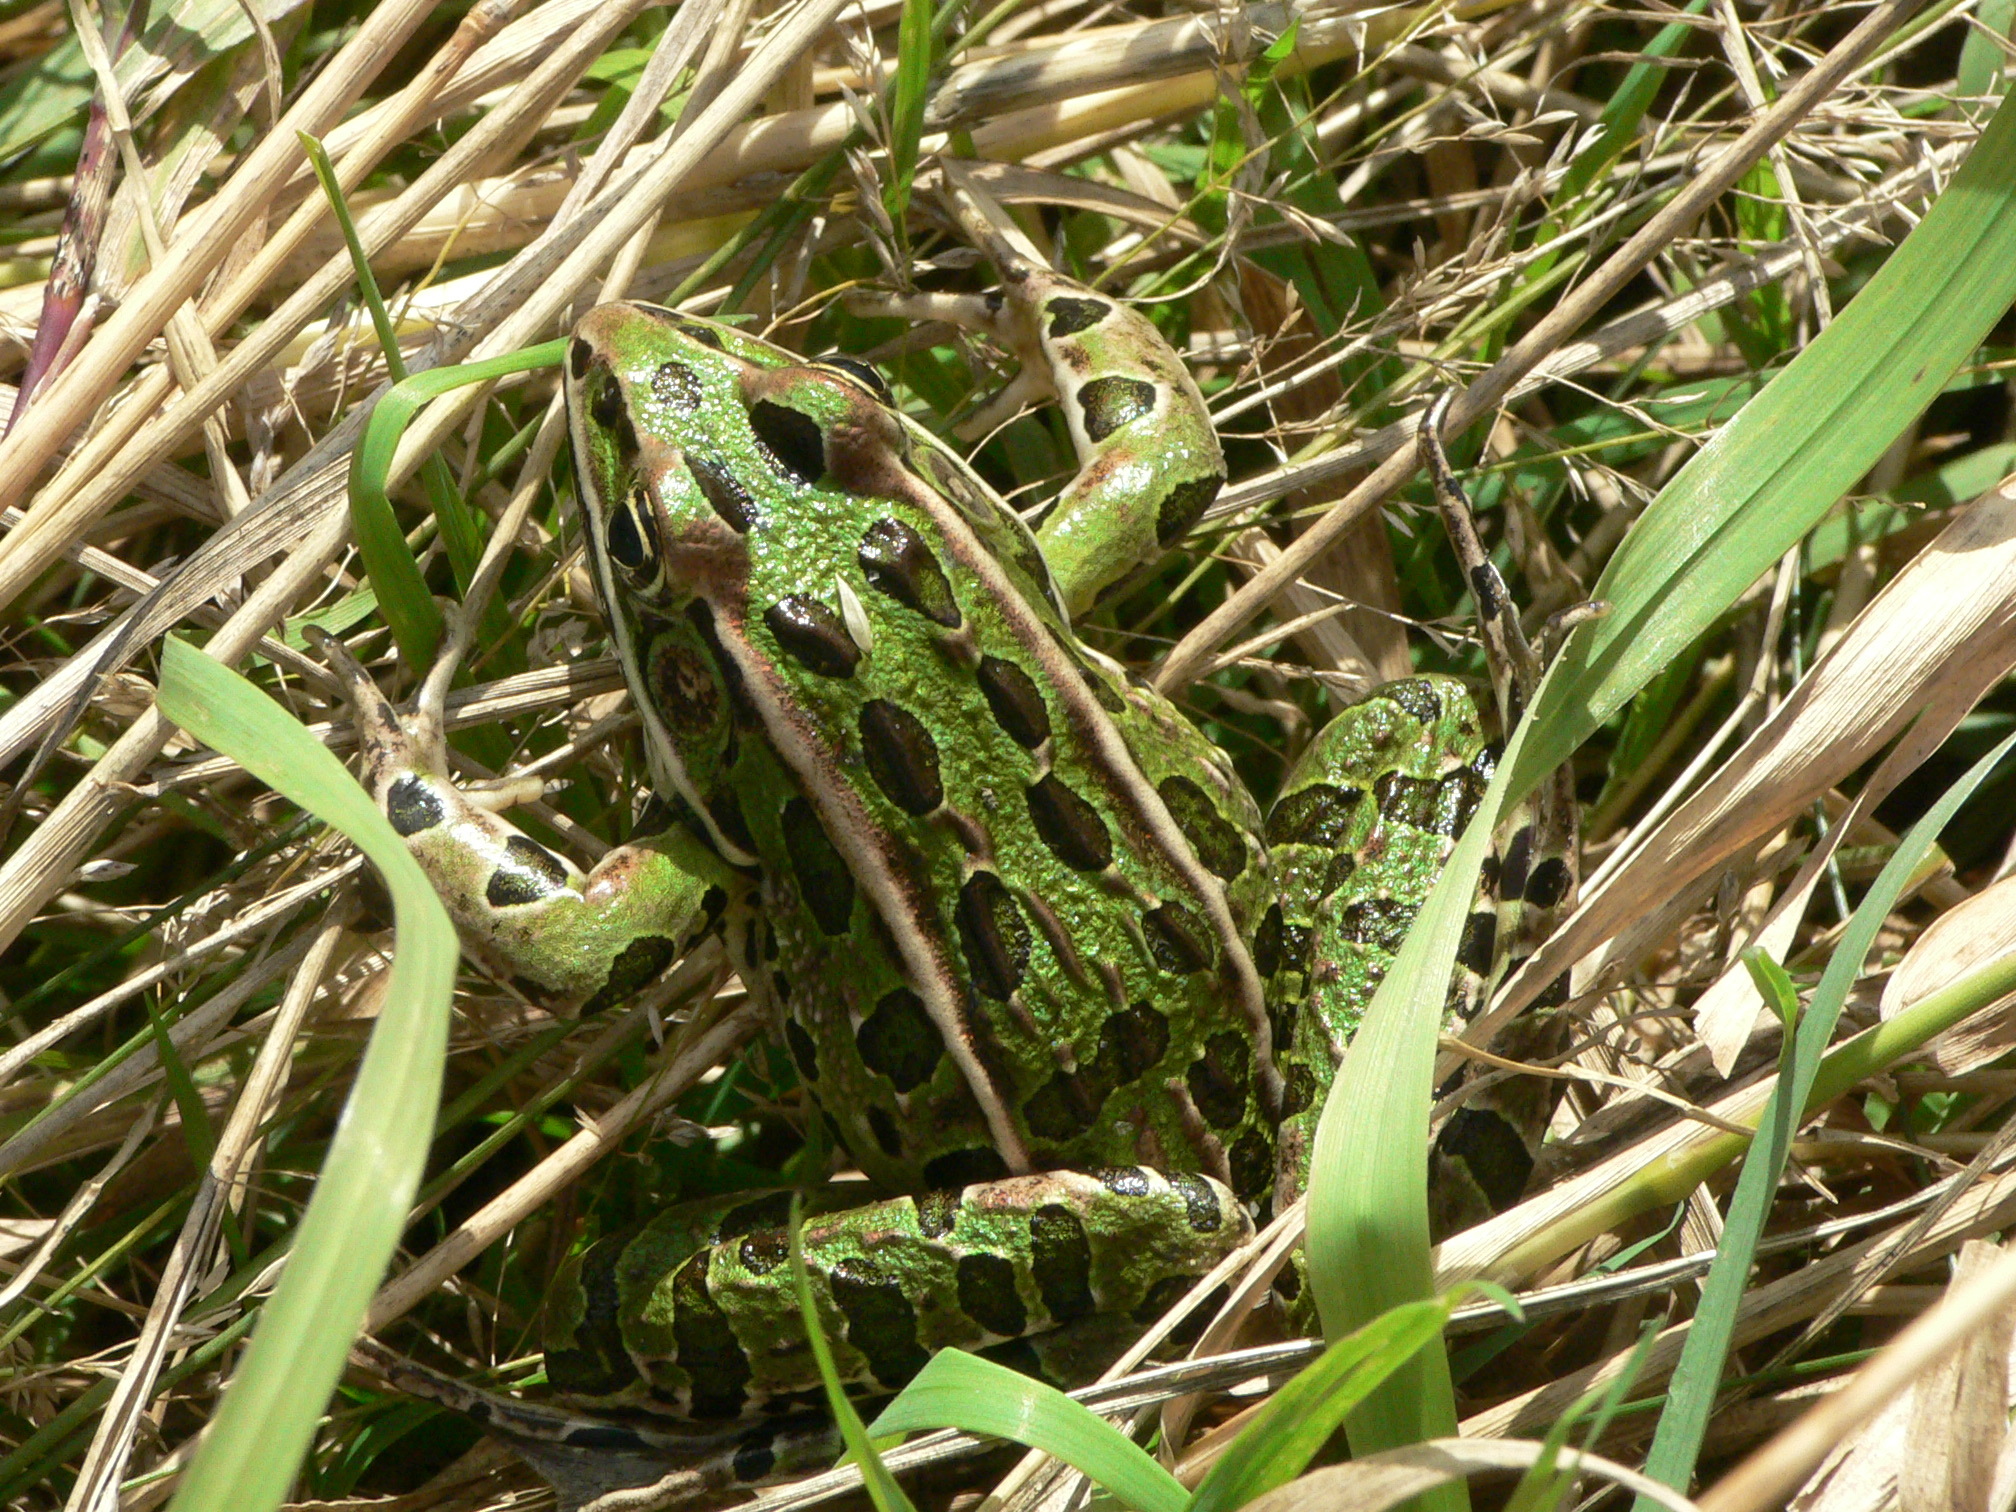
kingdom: Animalia
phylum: Chordata
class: Amphibia
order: Anura
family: Ranidae
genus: Lithobates
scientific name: Lithobates pipiens
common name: Northern leopard frog
